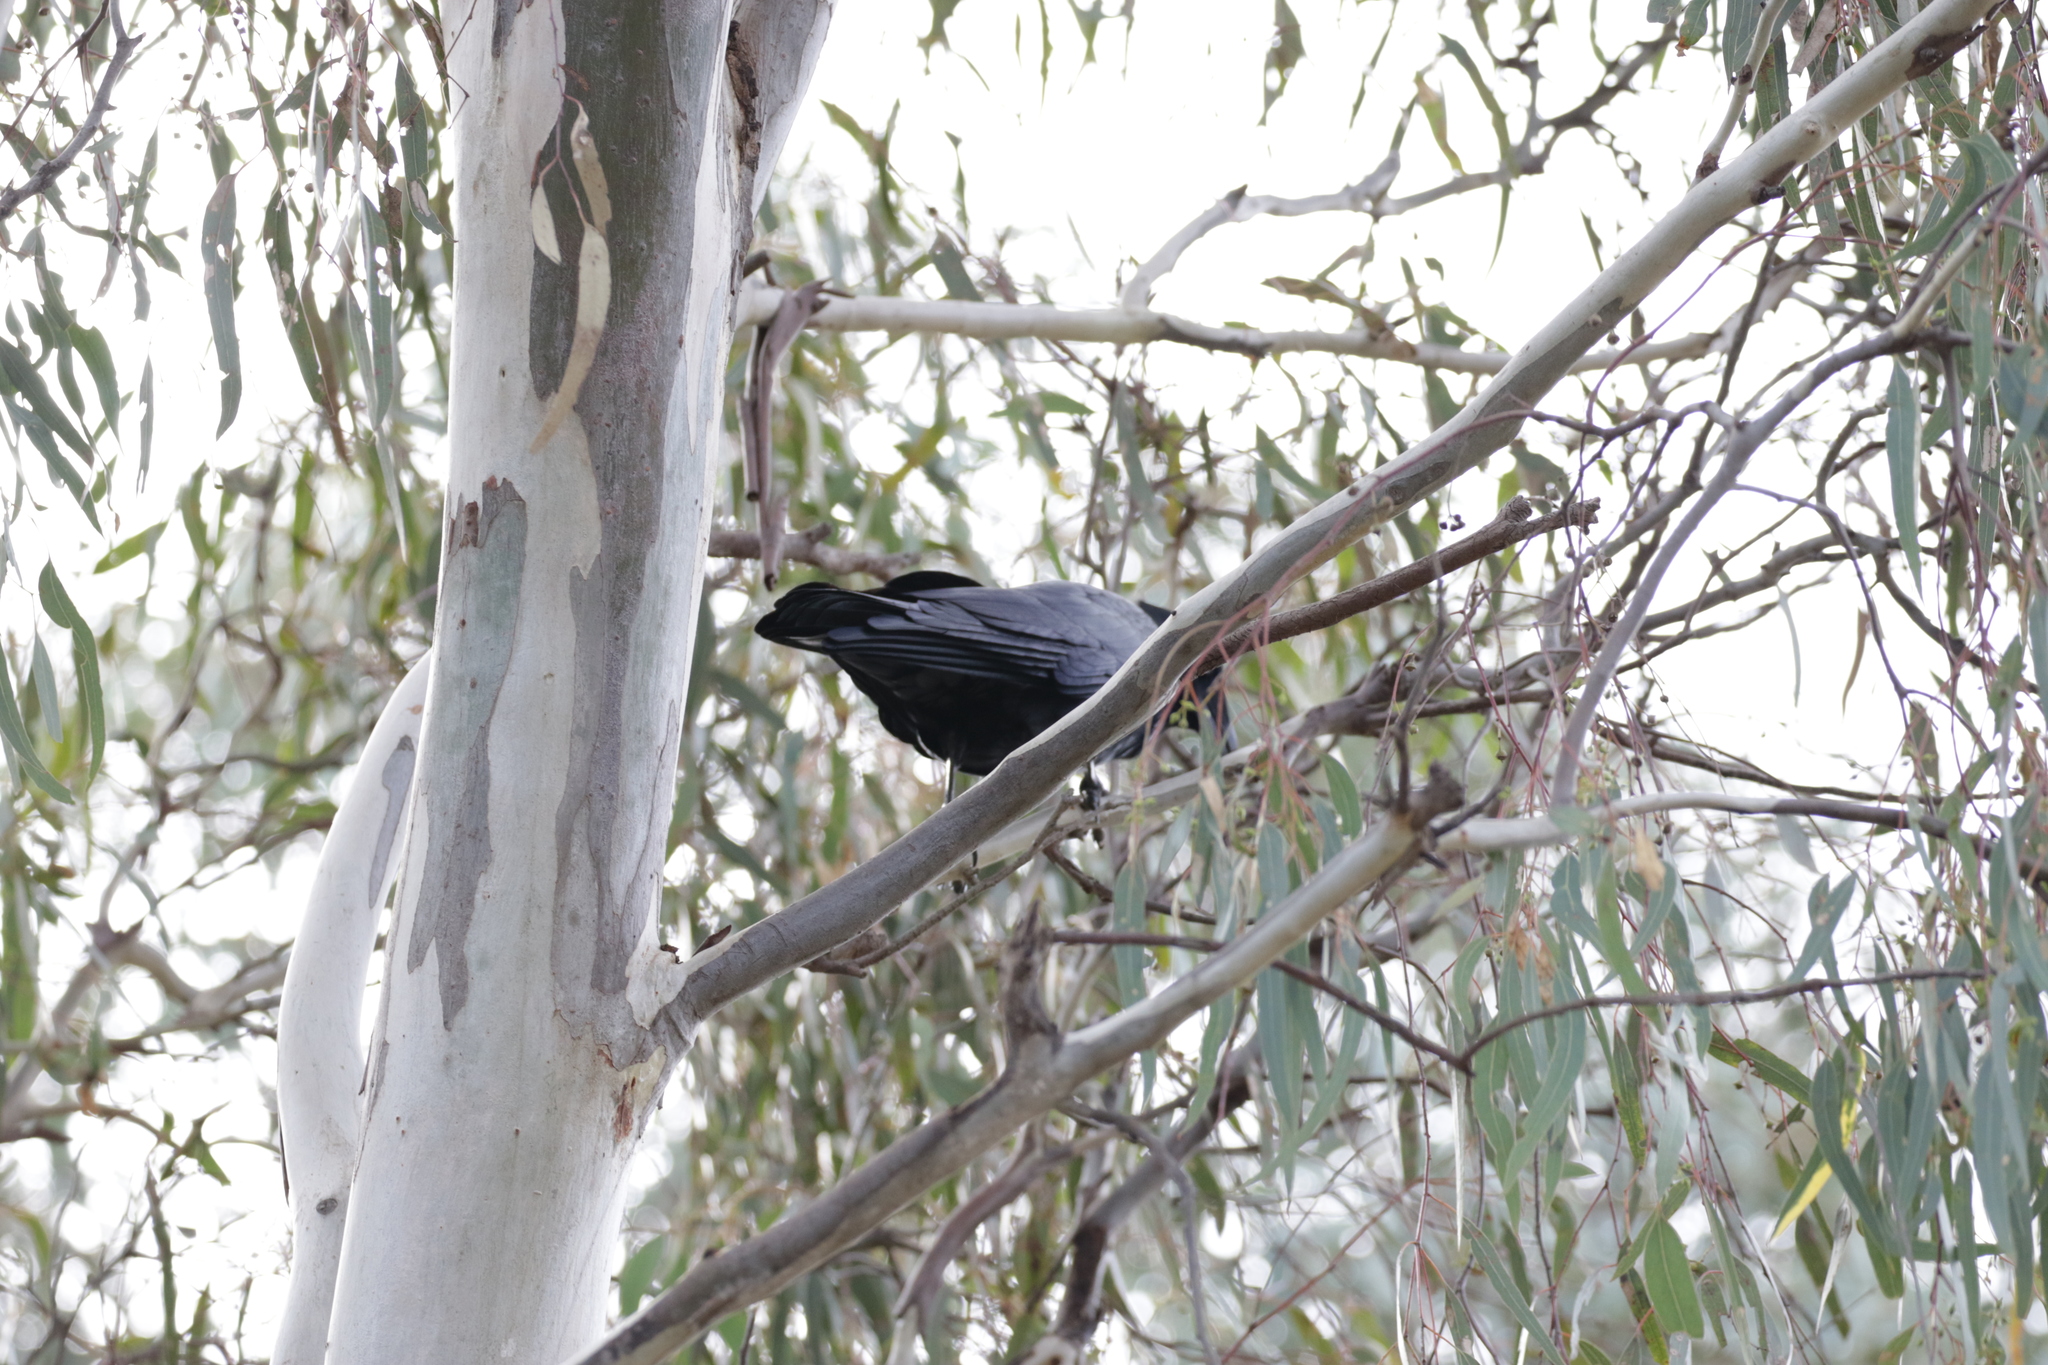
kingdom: Animalia
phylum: Chordata
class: Aves
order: Passeriformes
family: Corvidae
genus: Corvus
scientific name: Corvus mellori
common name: Little raven
